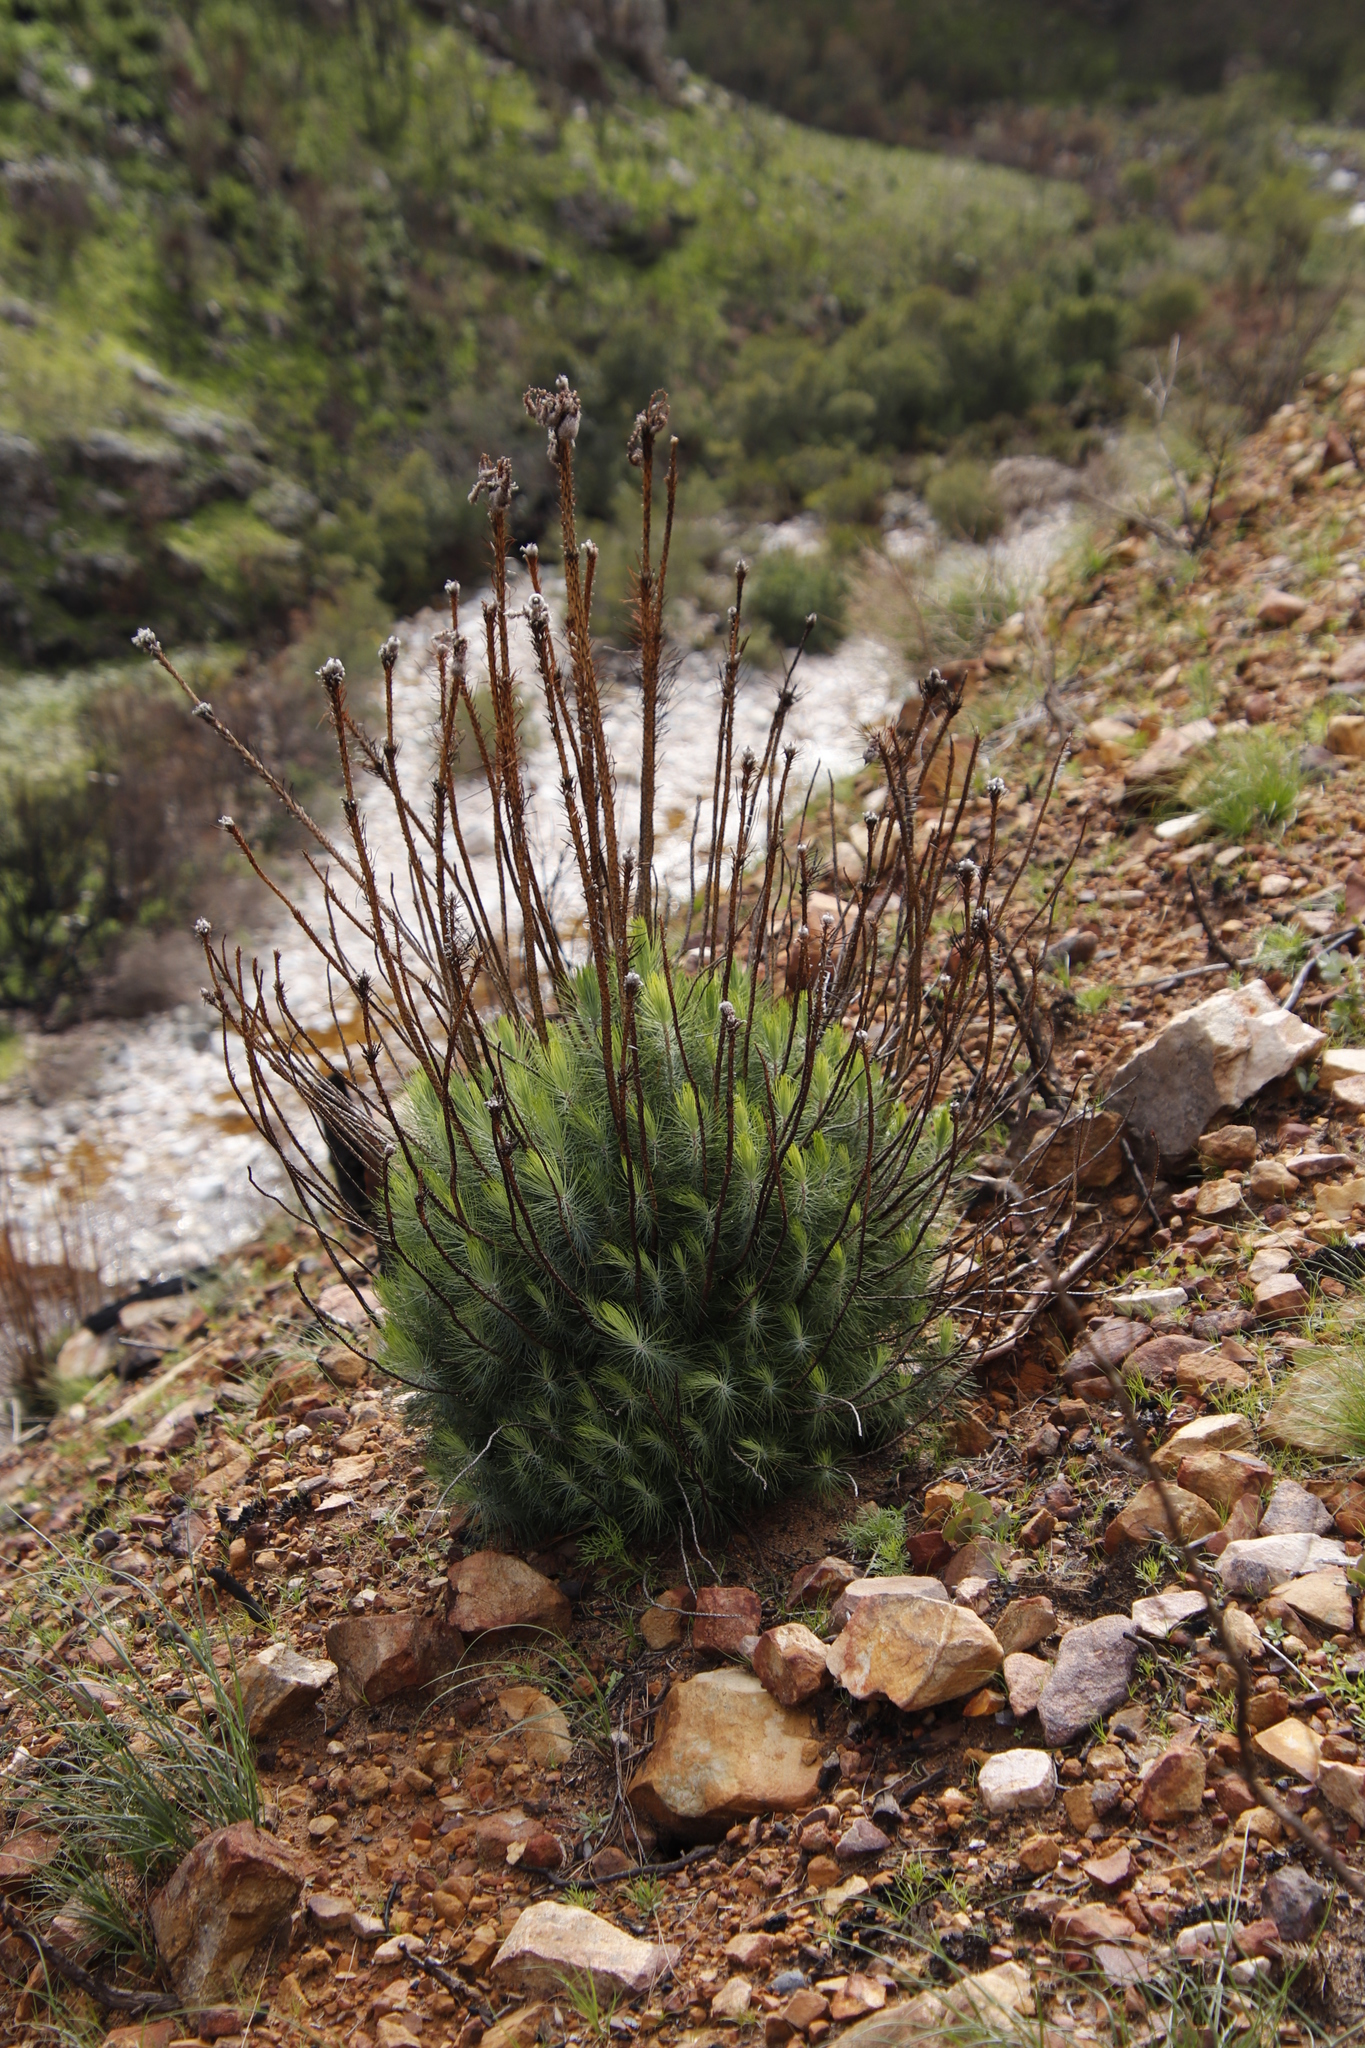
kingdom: Plantae
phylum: Tracheophyta
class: Pinopsida
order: Pinales
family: Pinaceae
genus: Pinus
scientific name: Pinus canariensis
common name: Canary islands pine
